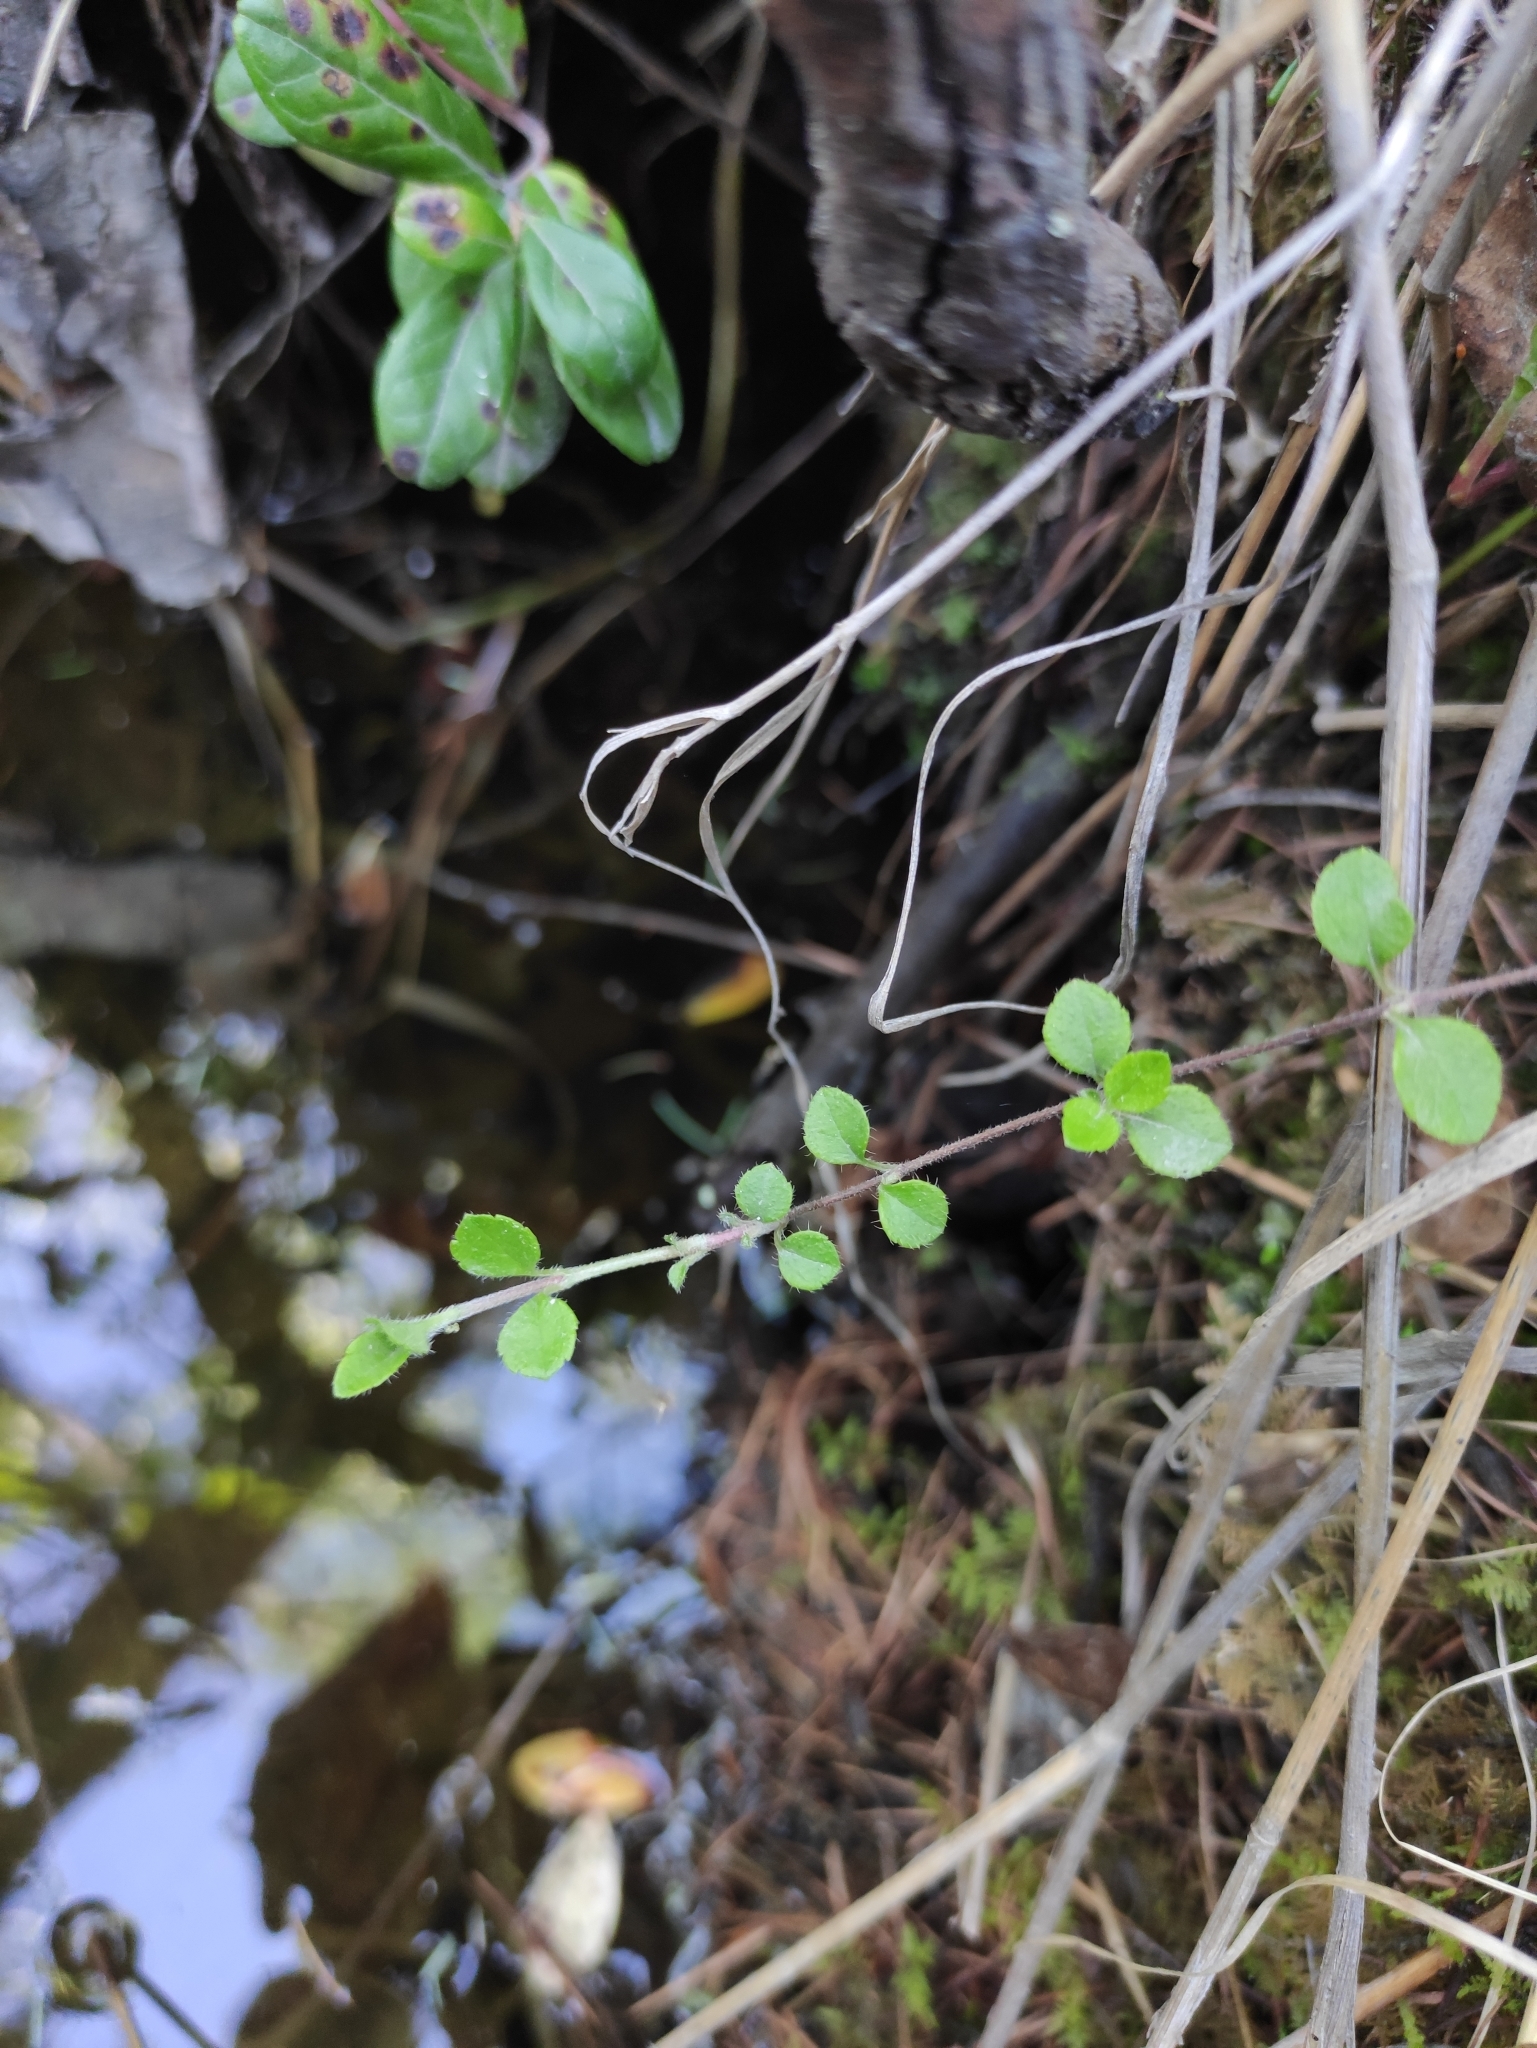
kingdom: Plantae
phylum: Tracheophyta
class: Magnoliopsida
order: Dipsacales
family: Caprifoliaceae
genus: Linnaea
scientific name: Linnaea borealis
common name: Twinflower
